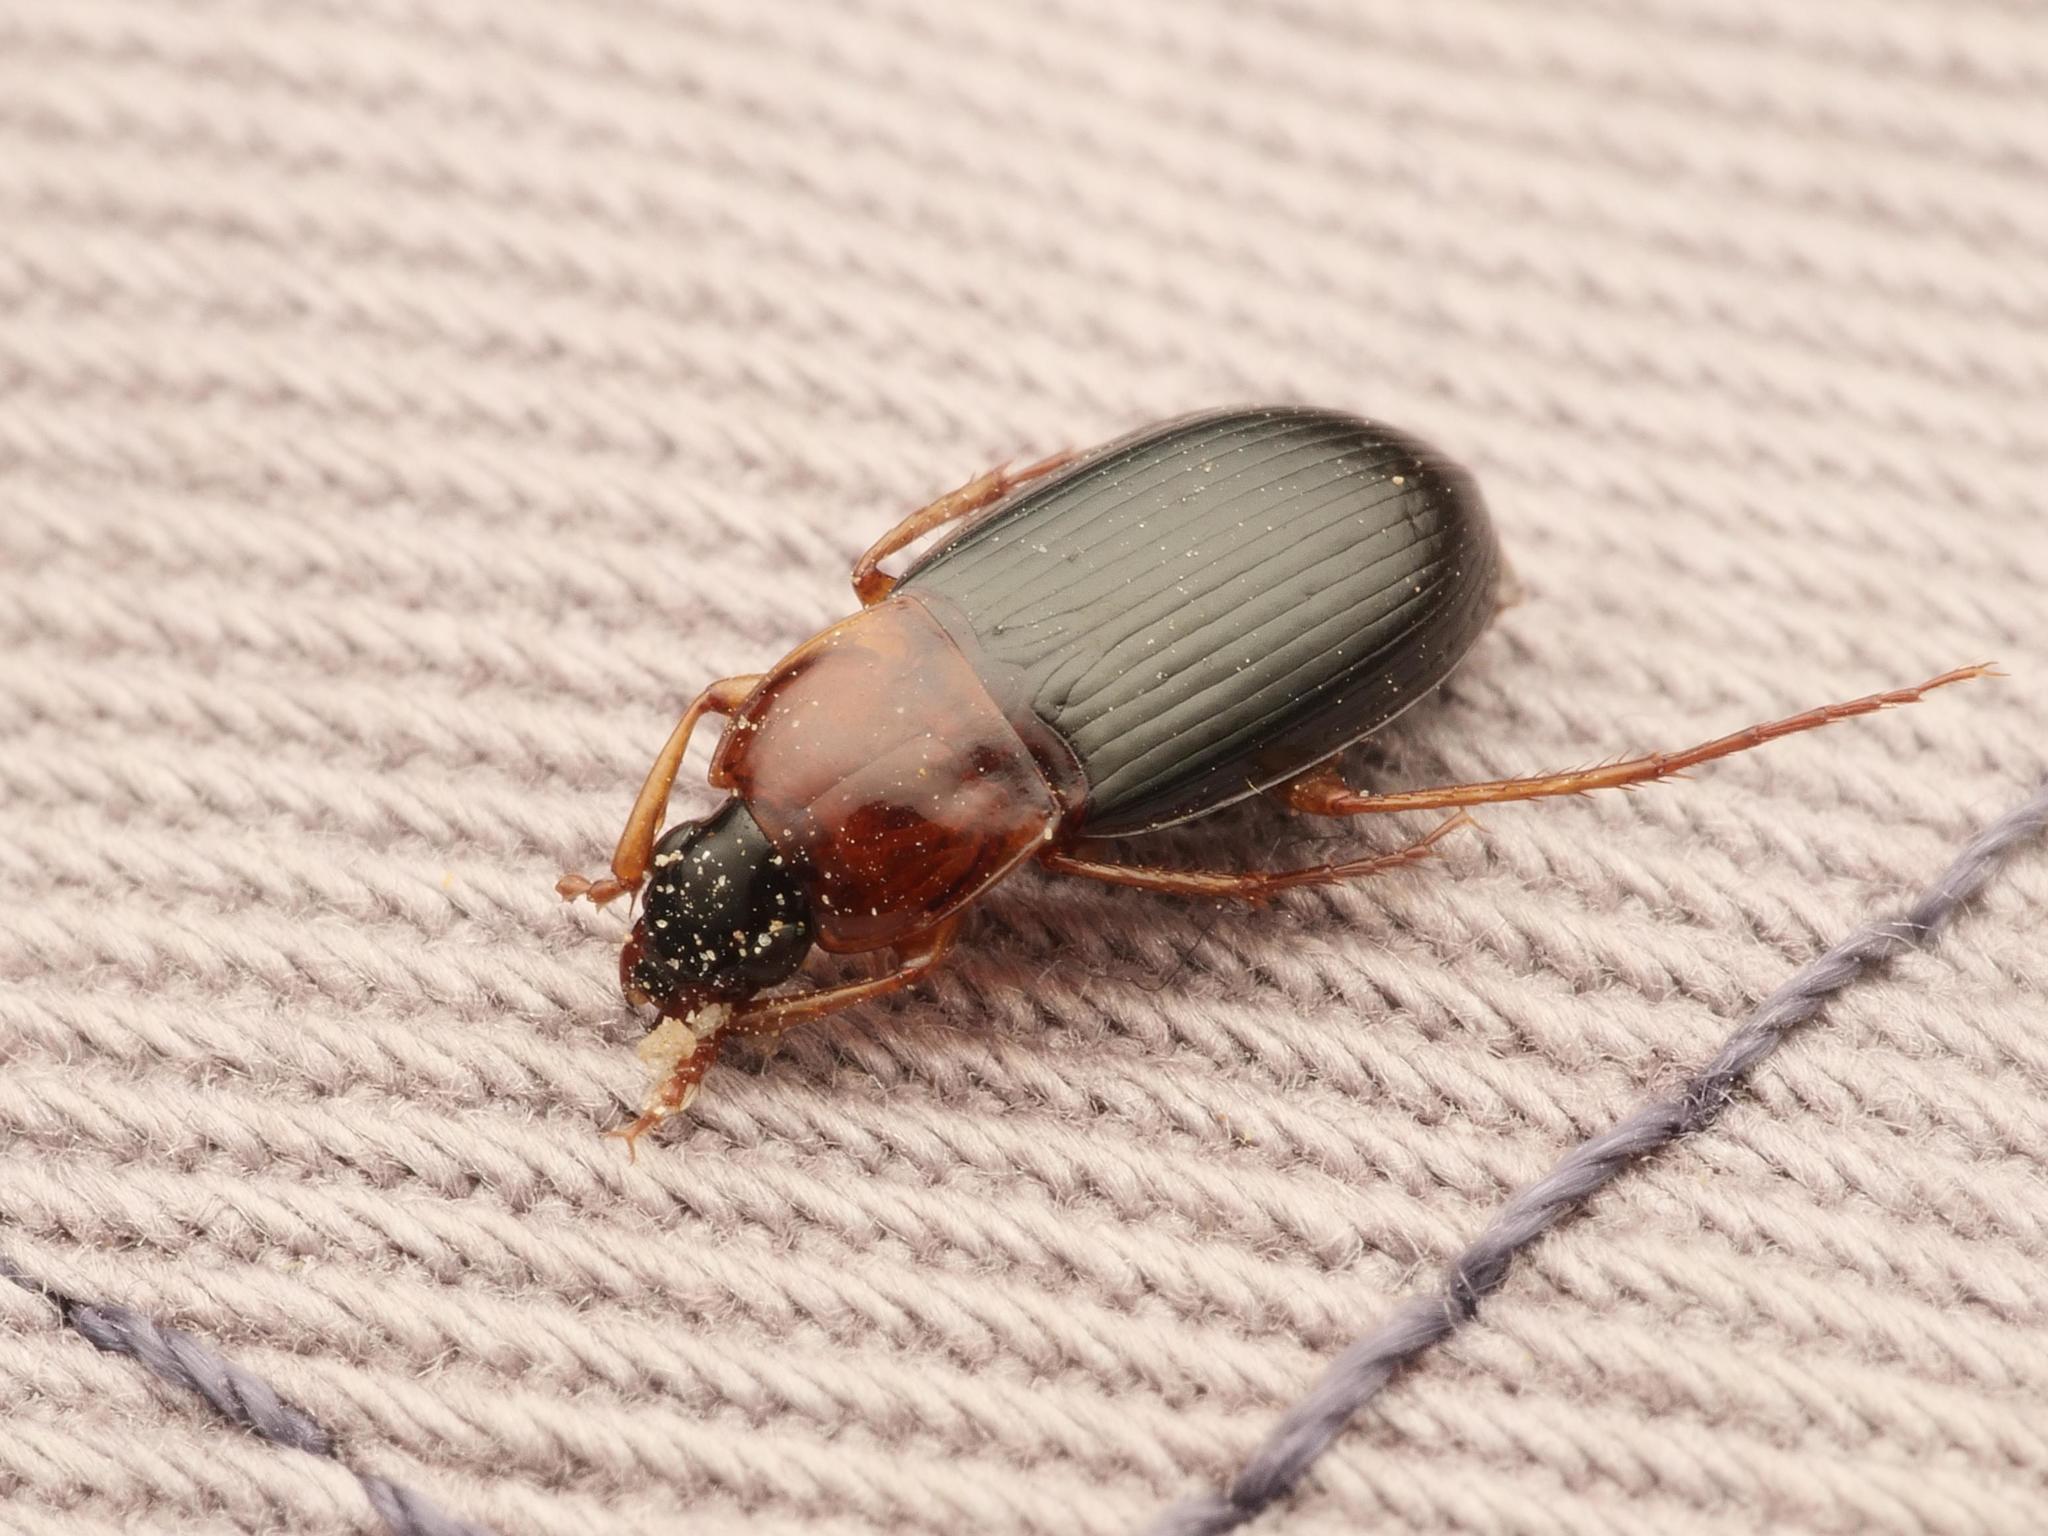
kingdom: Animalia
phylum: Arthropoda
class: Insecta
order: Coleoptera
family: Carabidae
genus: Calathus
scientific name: Calathus melanocephalus
